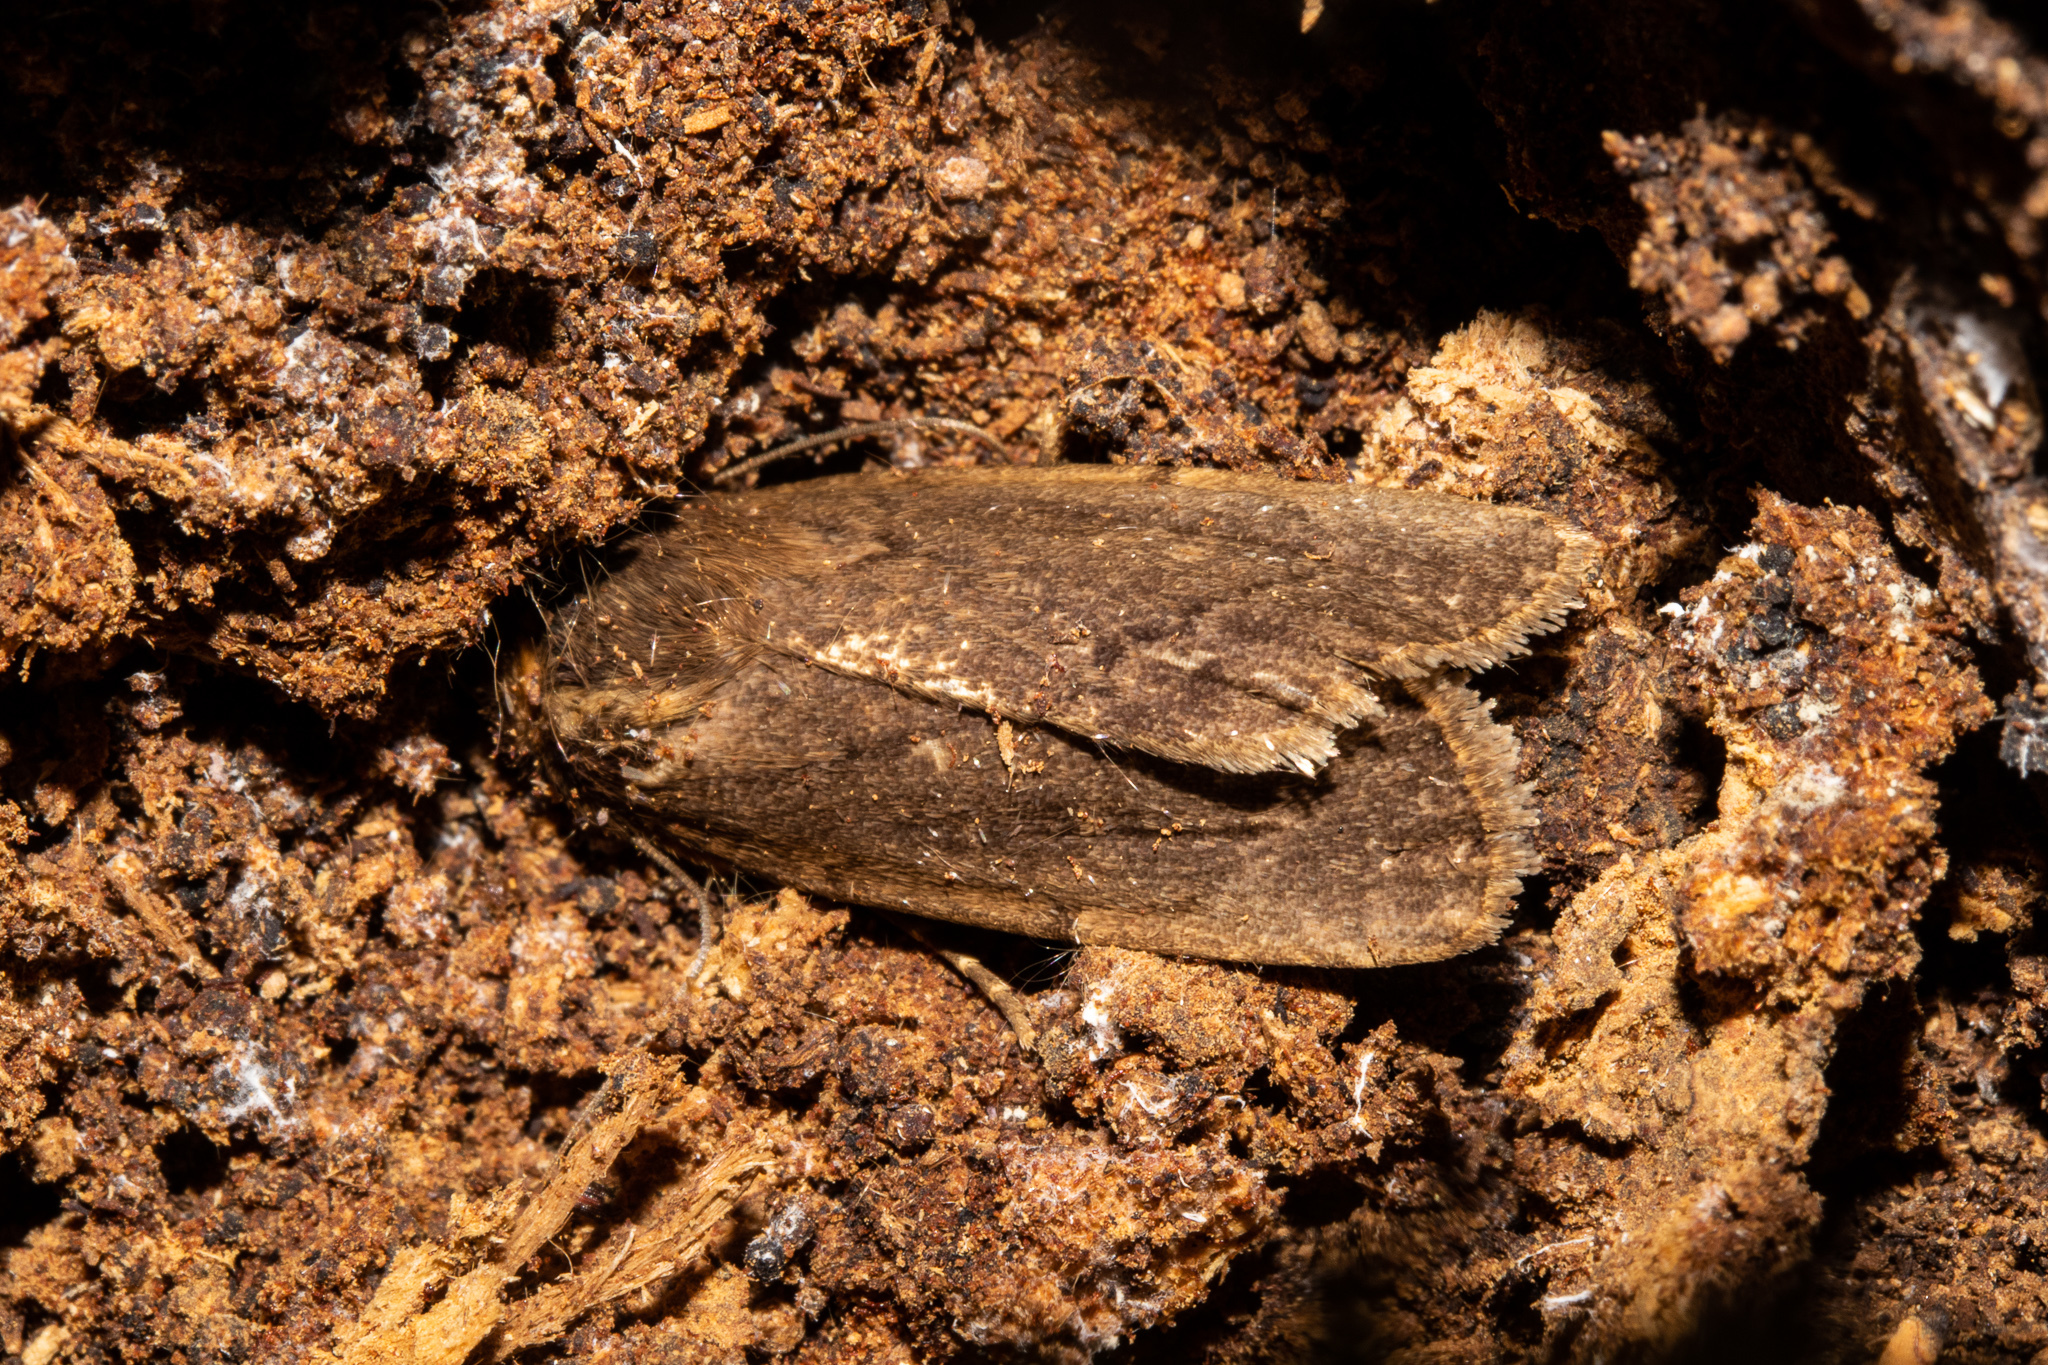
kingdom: Animalia
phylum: Arthropoda
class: Insecta
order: Lepidoptera
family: Noctuidae
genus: Bityla
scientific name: Bityla defigurata
